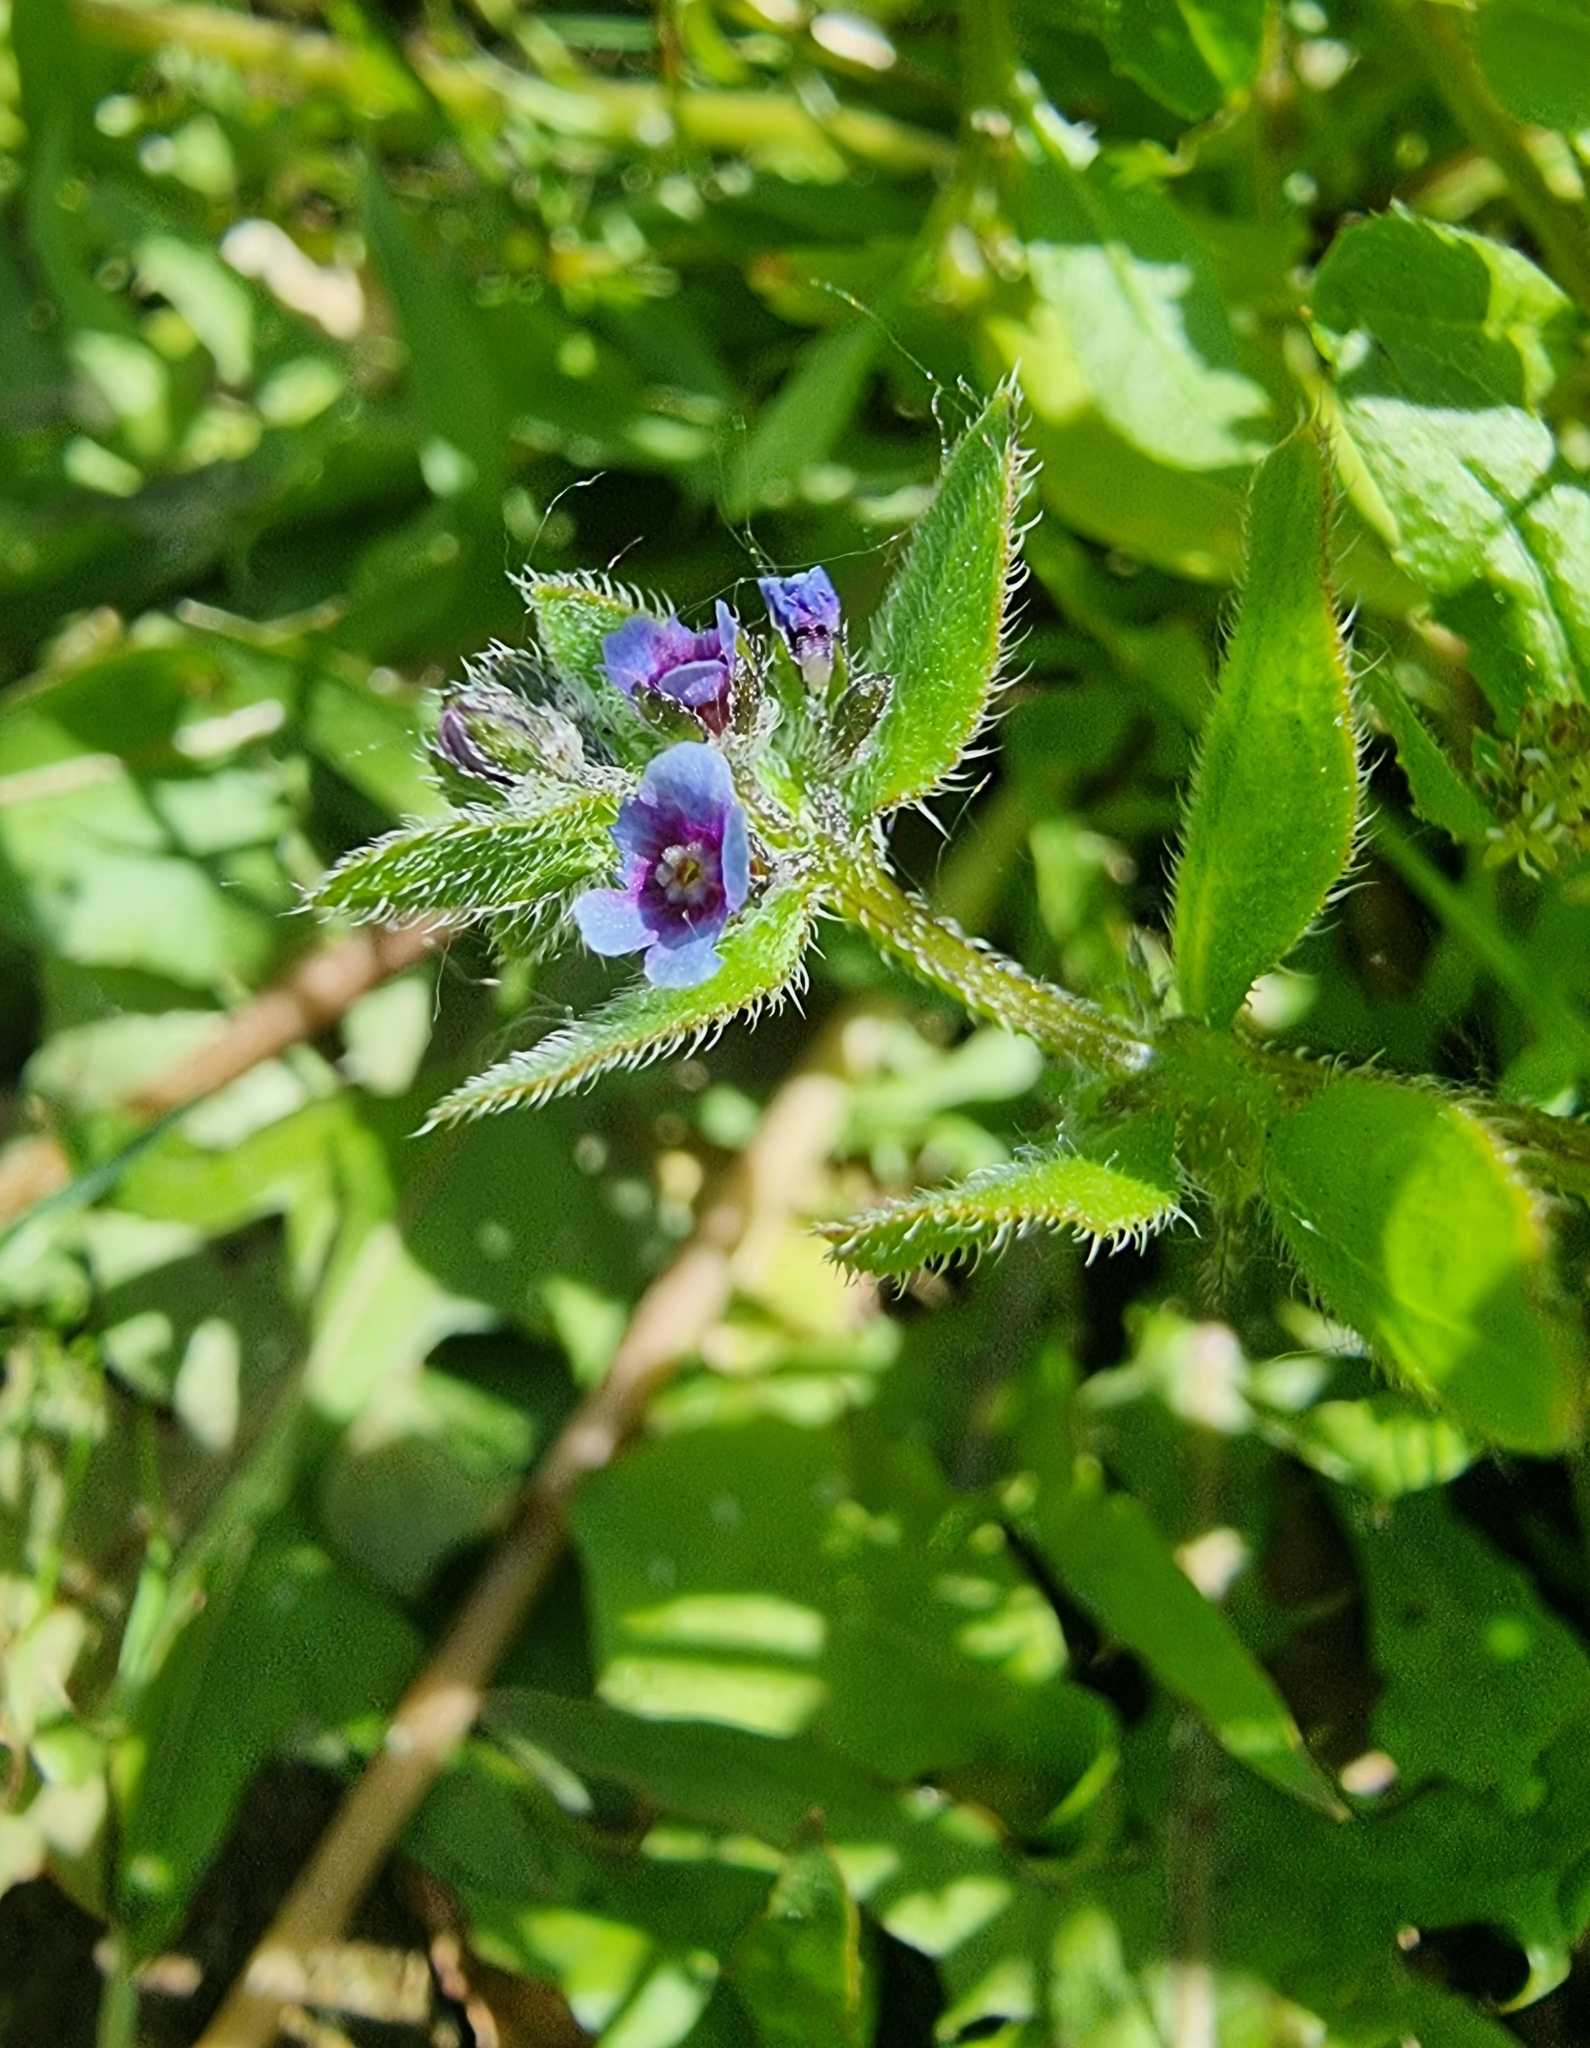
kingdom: Plantae
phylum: Tracheophyta
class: Magnoliopsida
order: Boraginales
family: Boraginaceae
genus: Asperugo
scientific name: Asperugo procumbens
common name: Madwort
